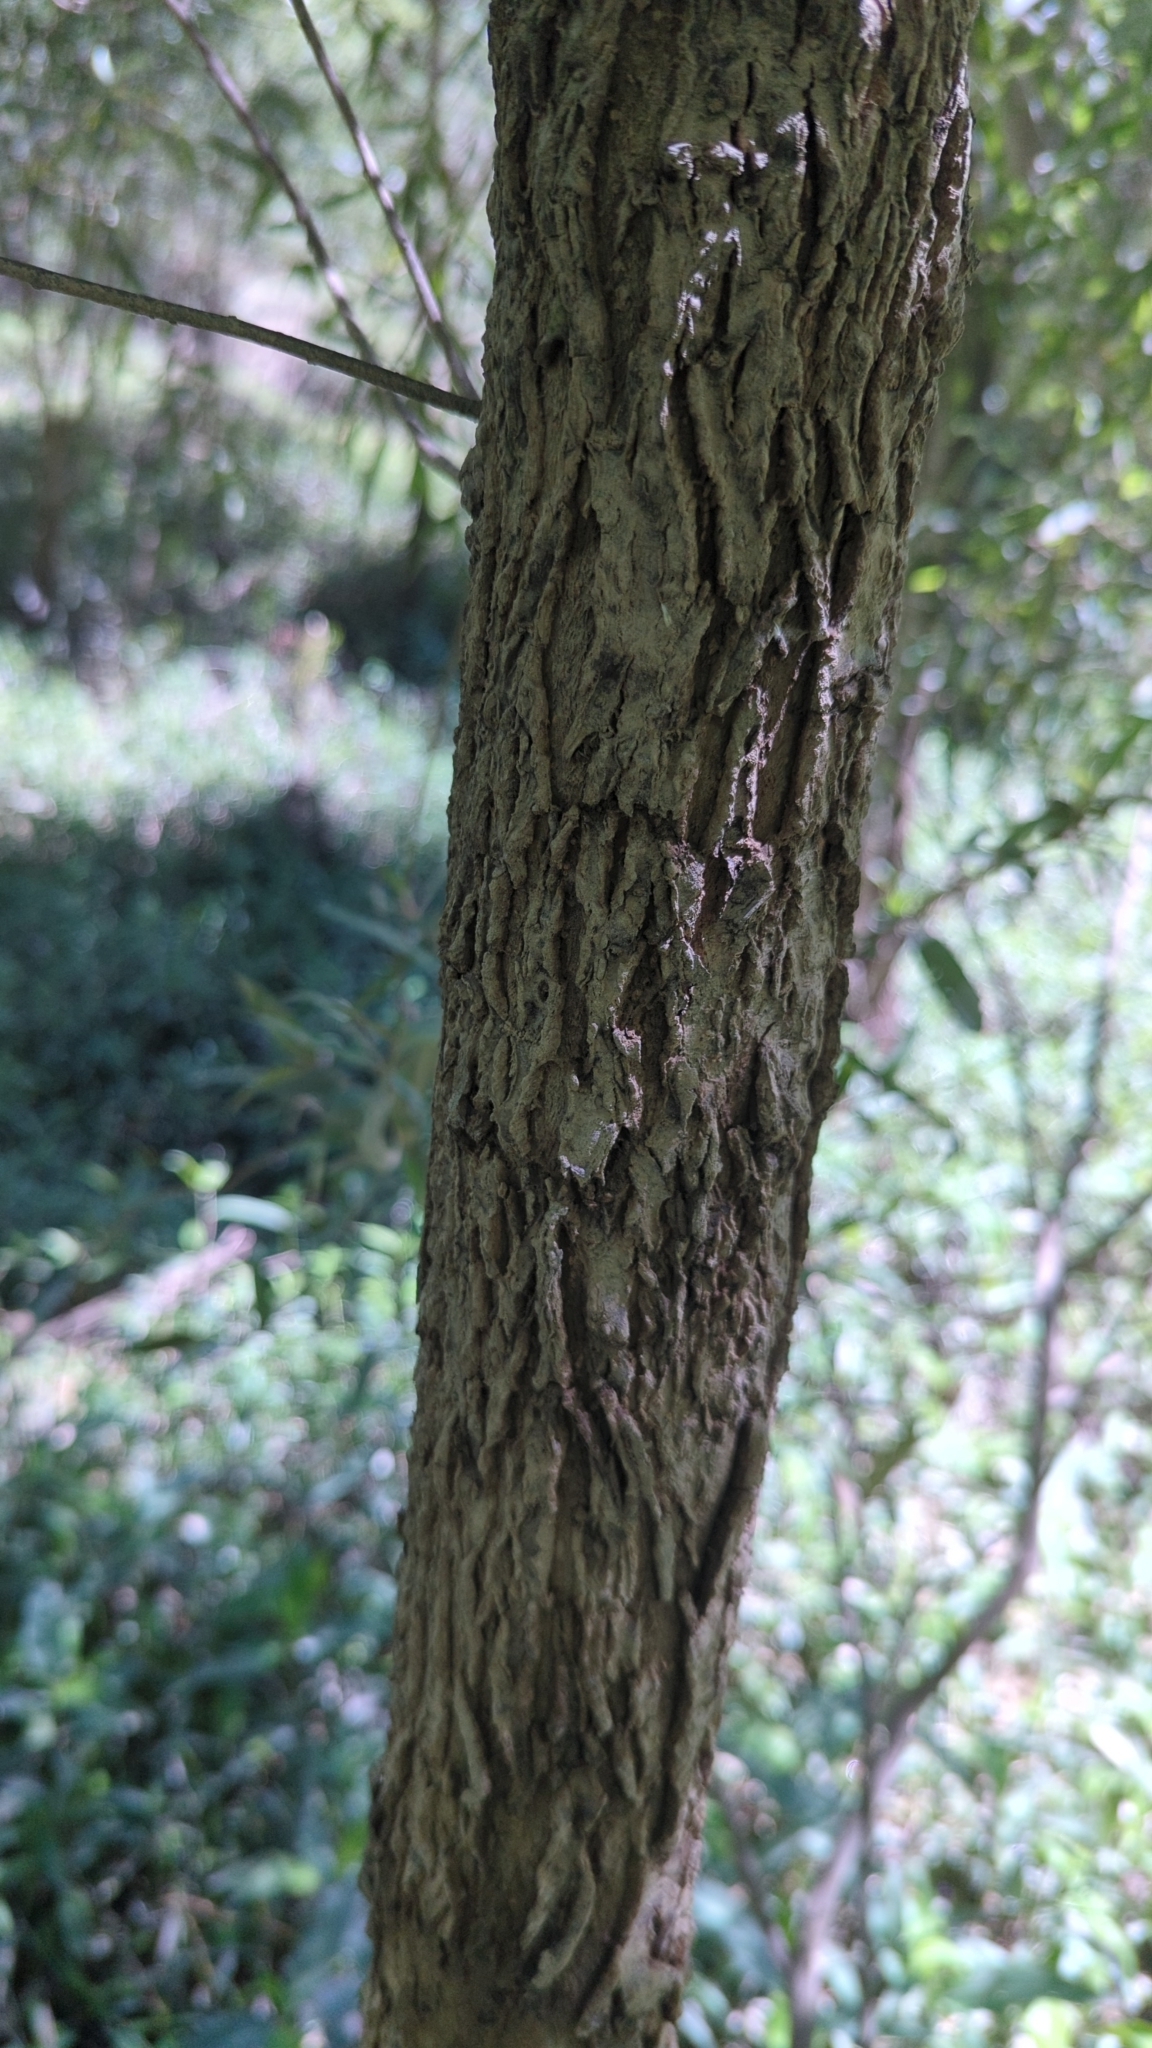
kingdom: Plantae
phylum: Tracheophyta
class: Magnoliopsida
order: Malpighiales
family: Salicaceae
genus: Salix
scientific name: Salix nigra
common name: Black willow
